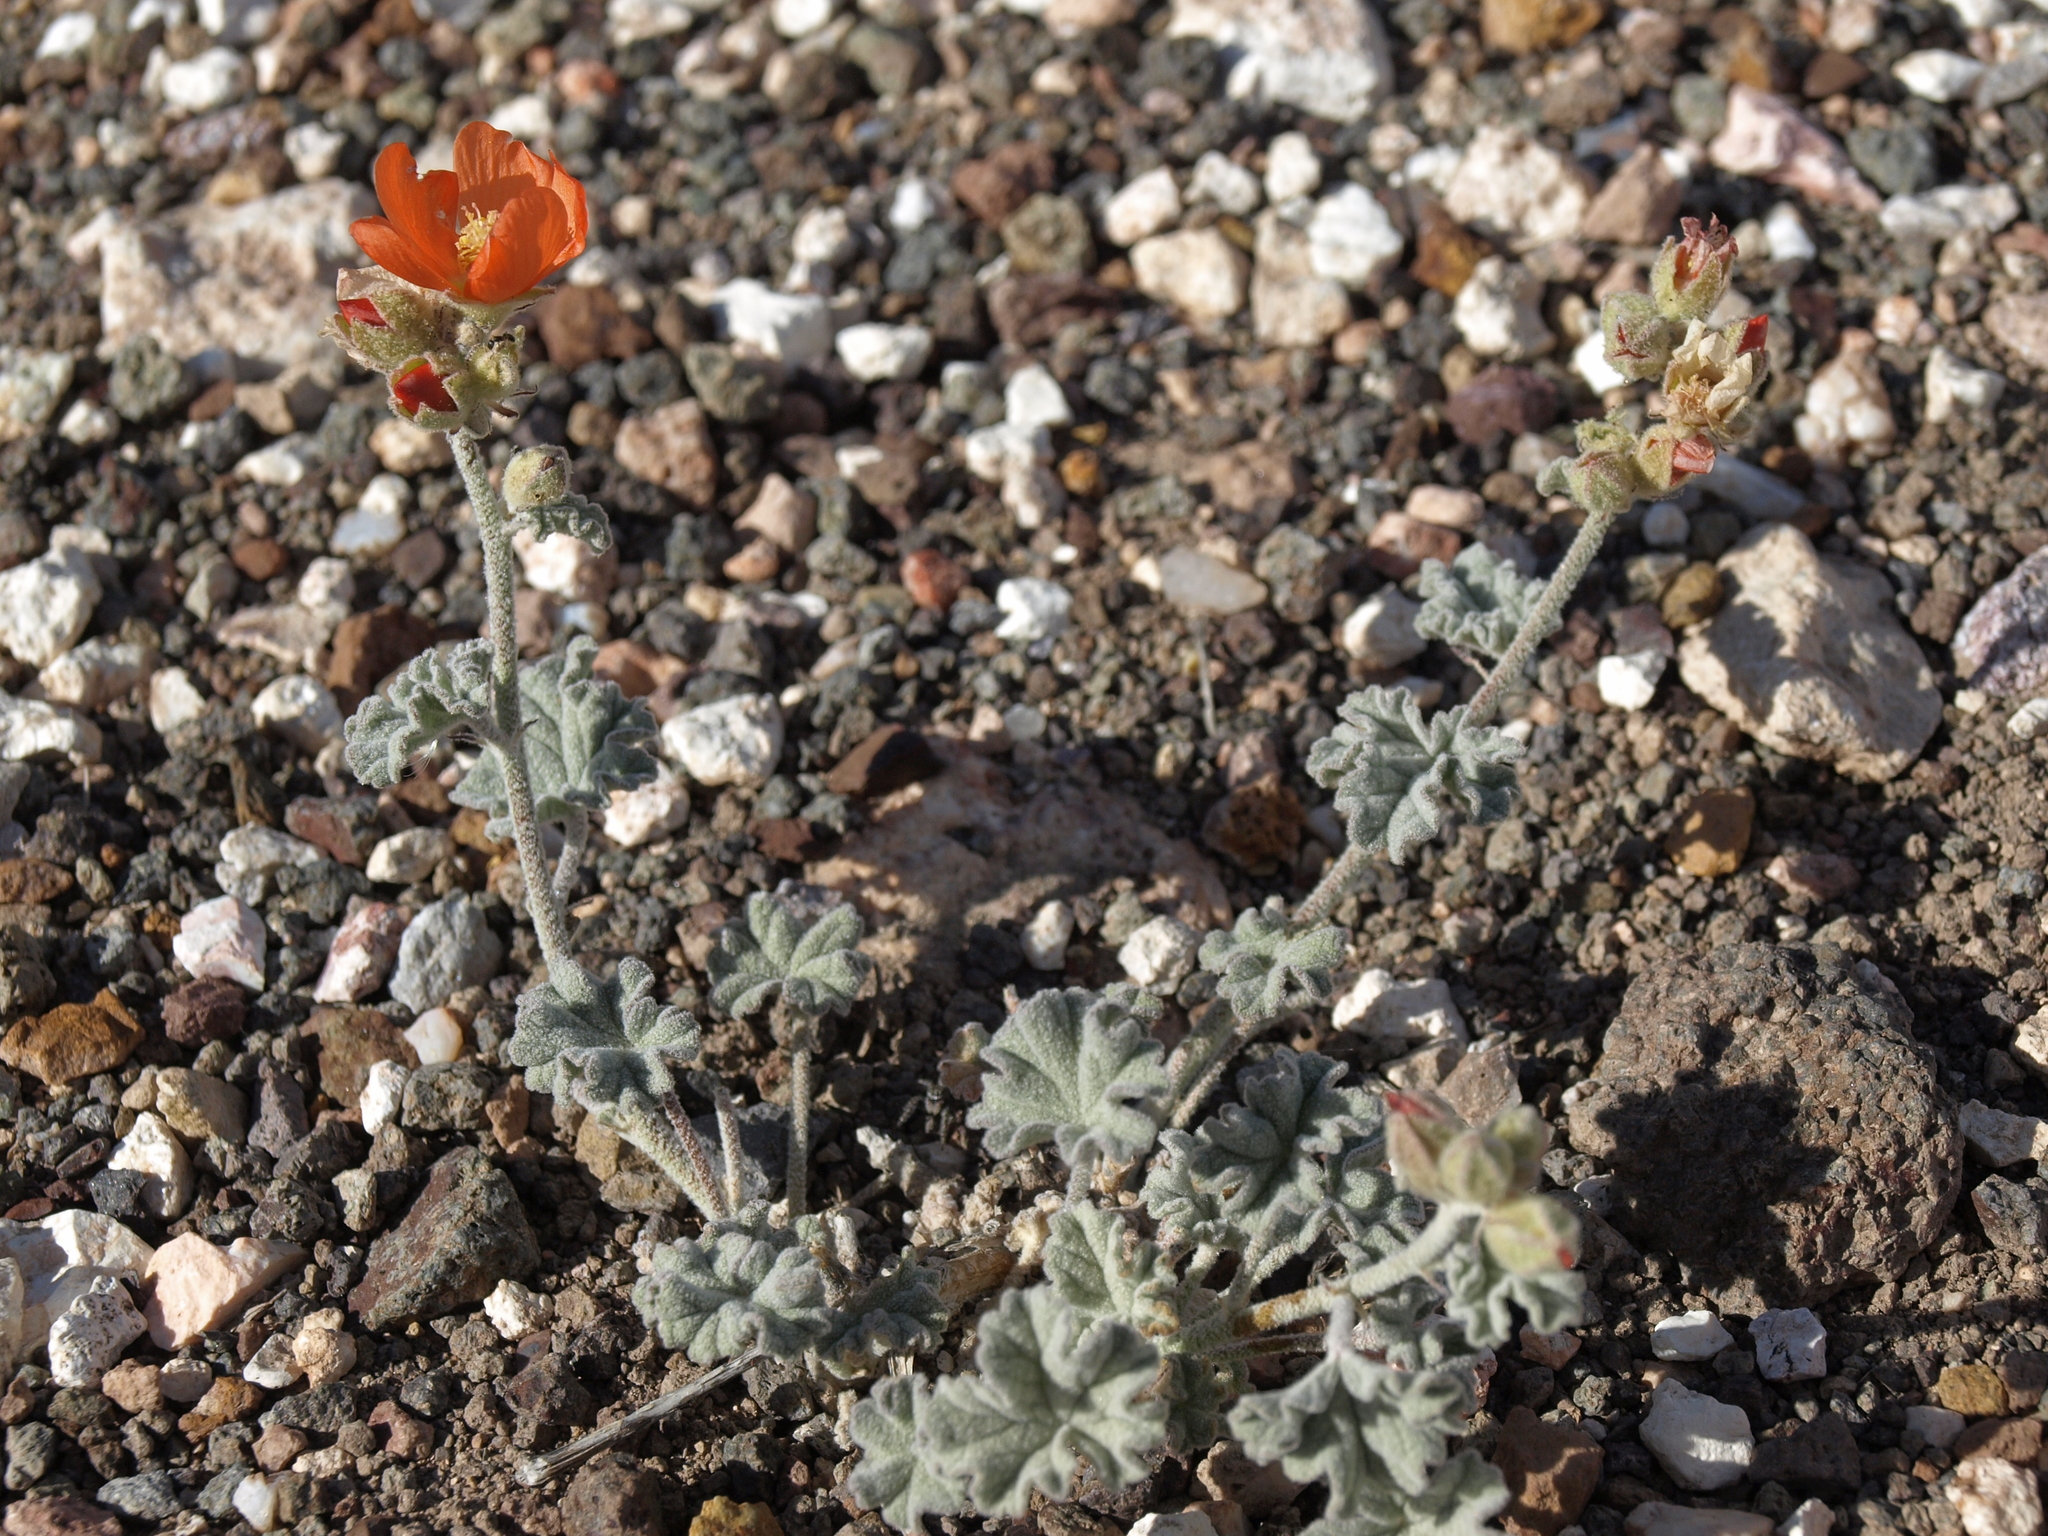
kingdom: Plantae
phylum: Tracheophyta
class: Magnoliopsida
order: Malvales
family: Malvaceae
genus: Sphaeralcea
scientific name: Sphaeralcea parvifolia
